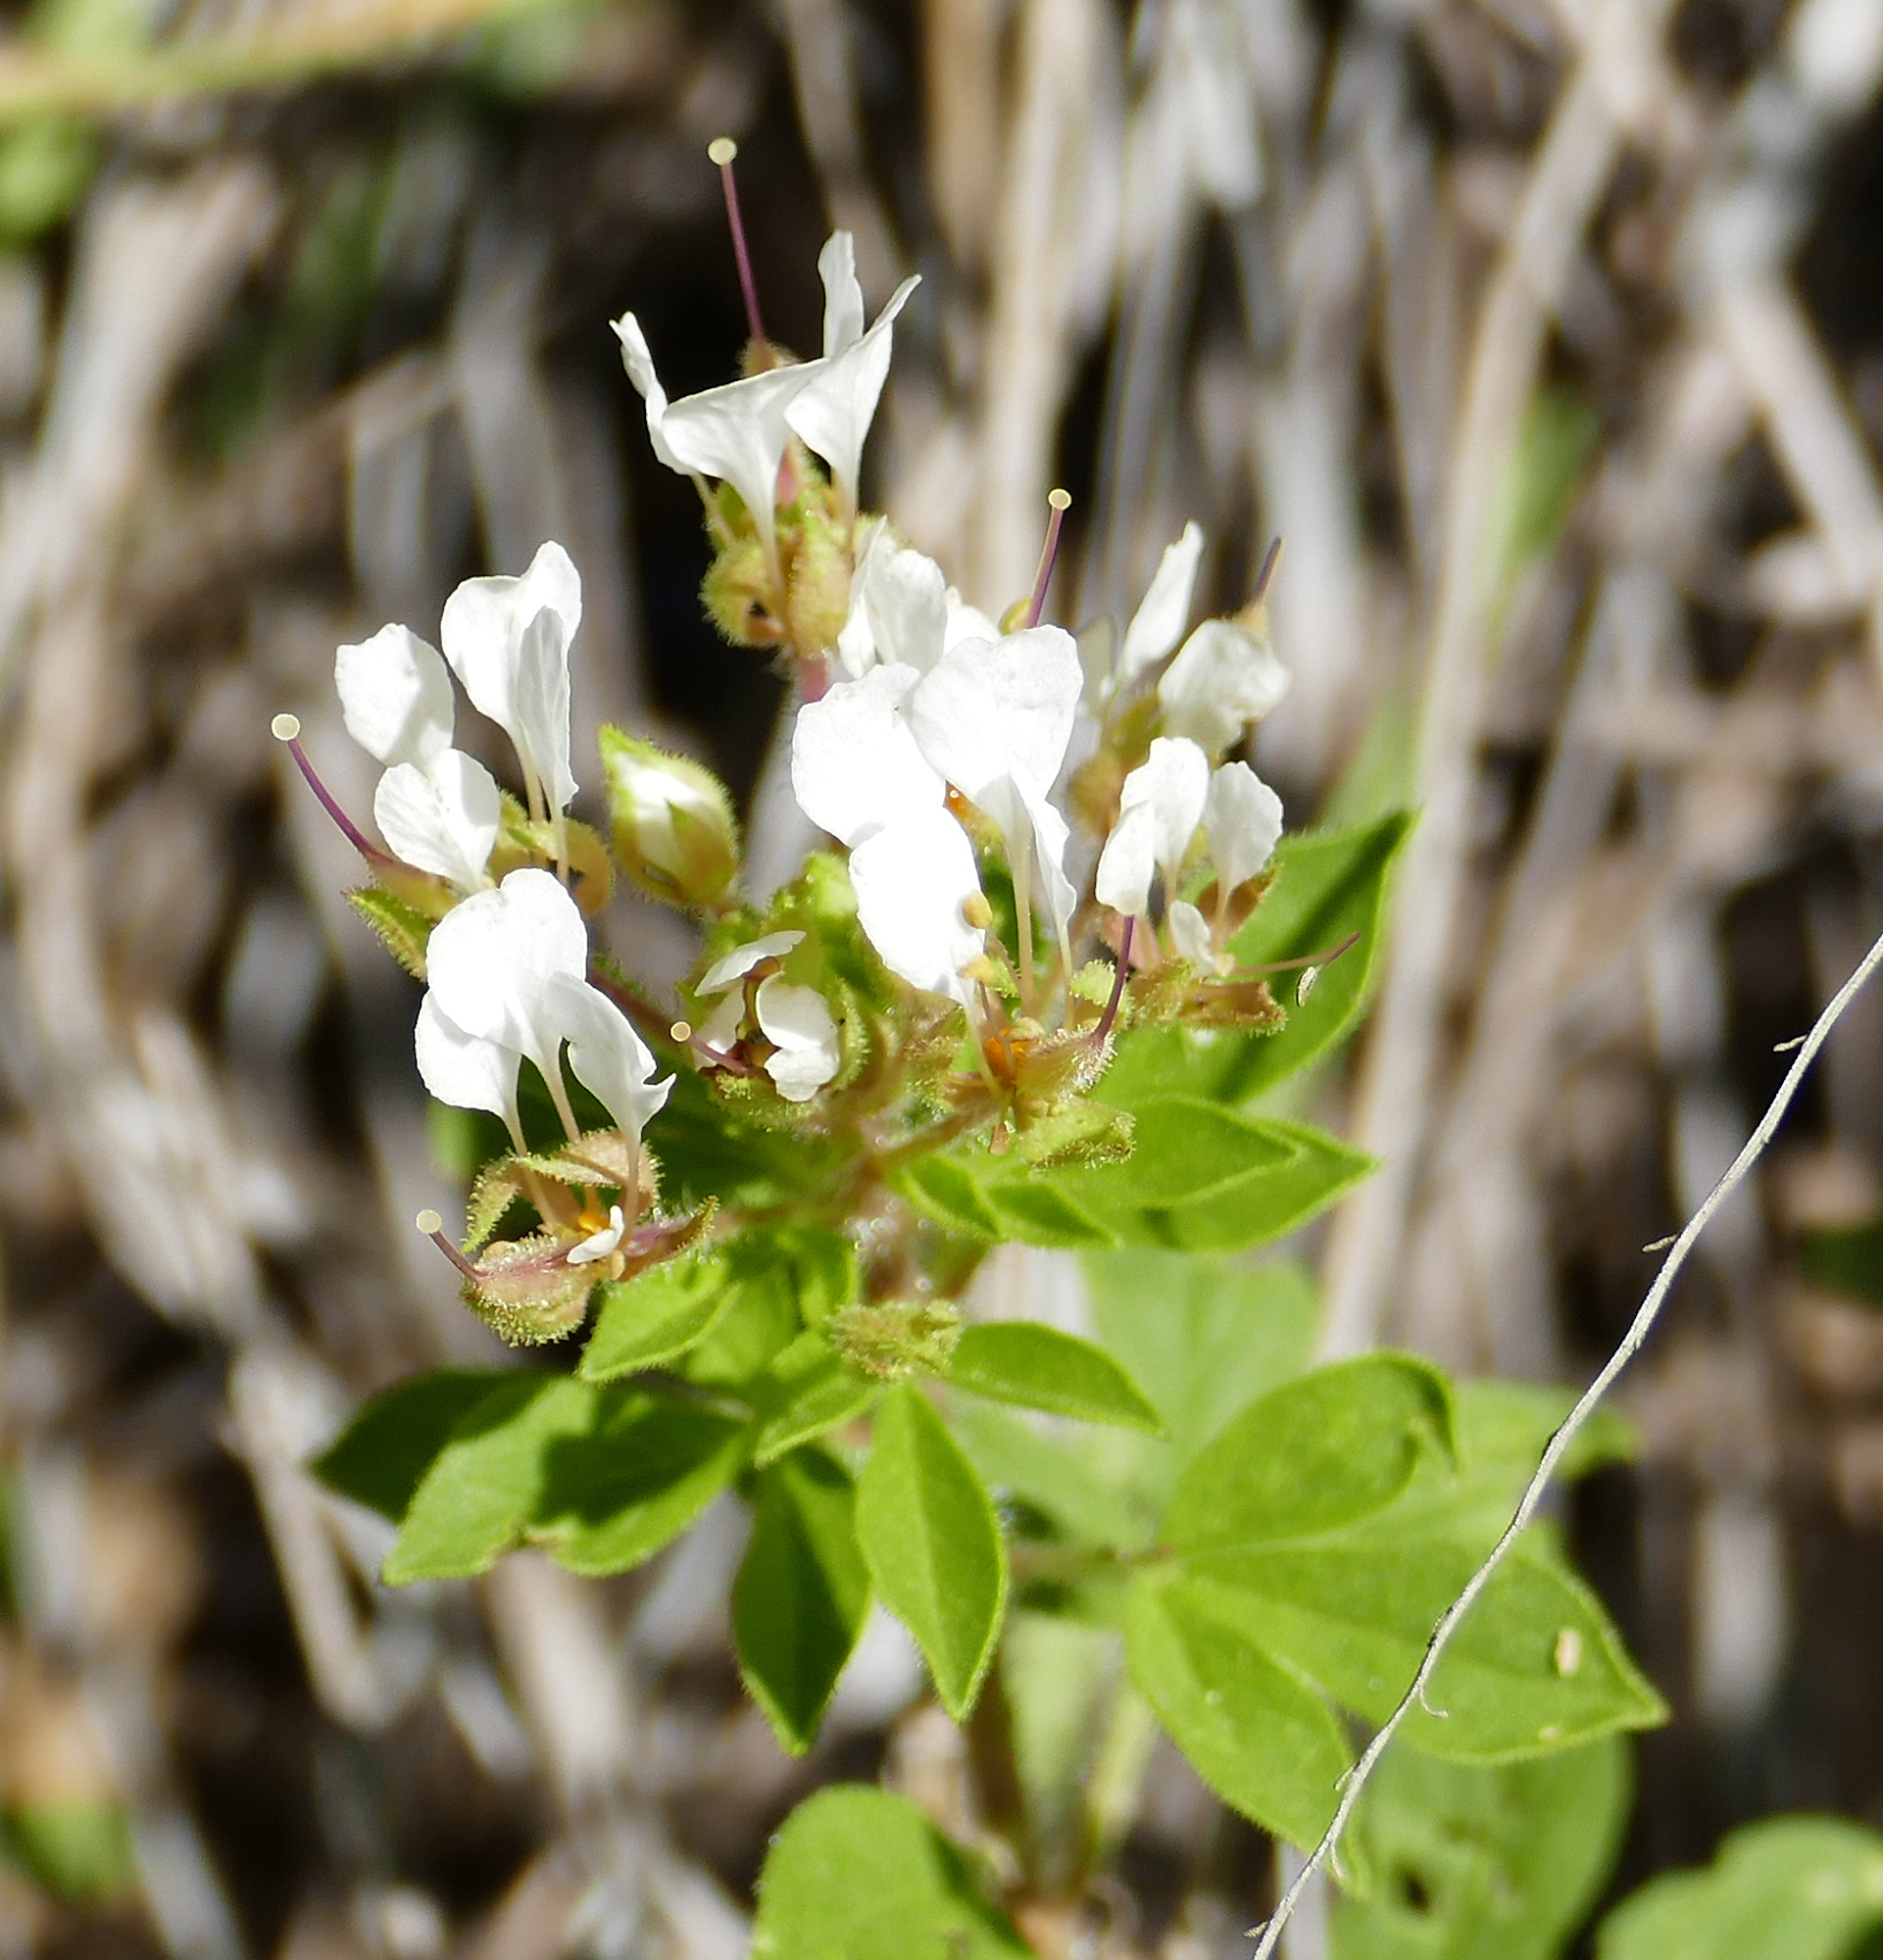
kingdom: Plantae
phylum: Tracheophyta
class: Magnoliopsida
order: Brassicales
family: Cleomaceae
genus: Polanisia
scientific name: Polanisia dodecandra
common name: Clammyweed
